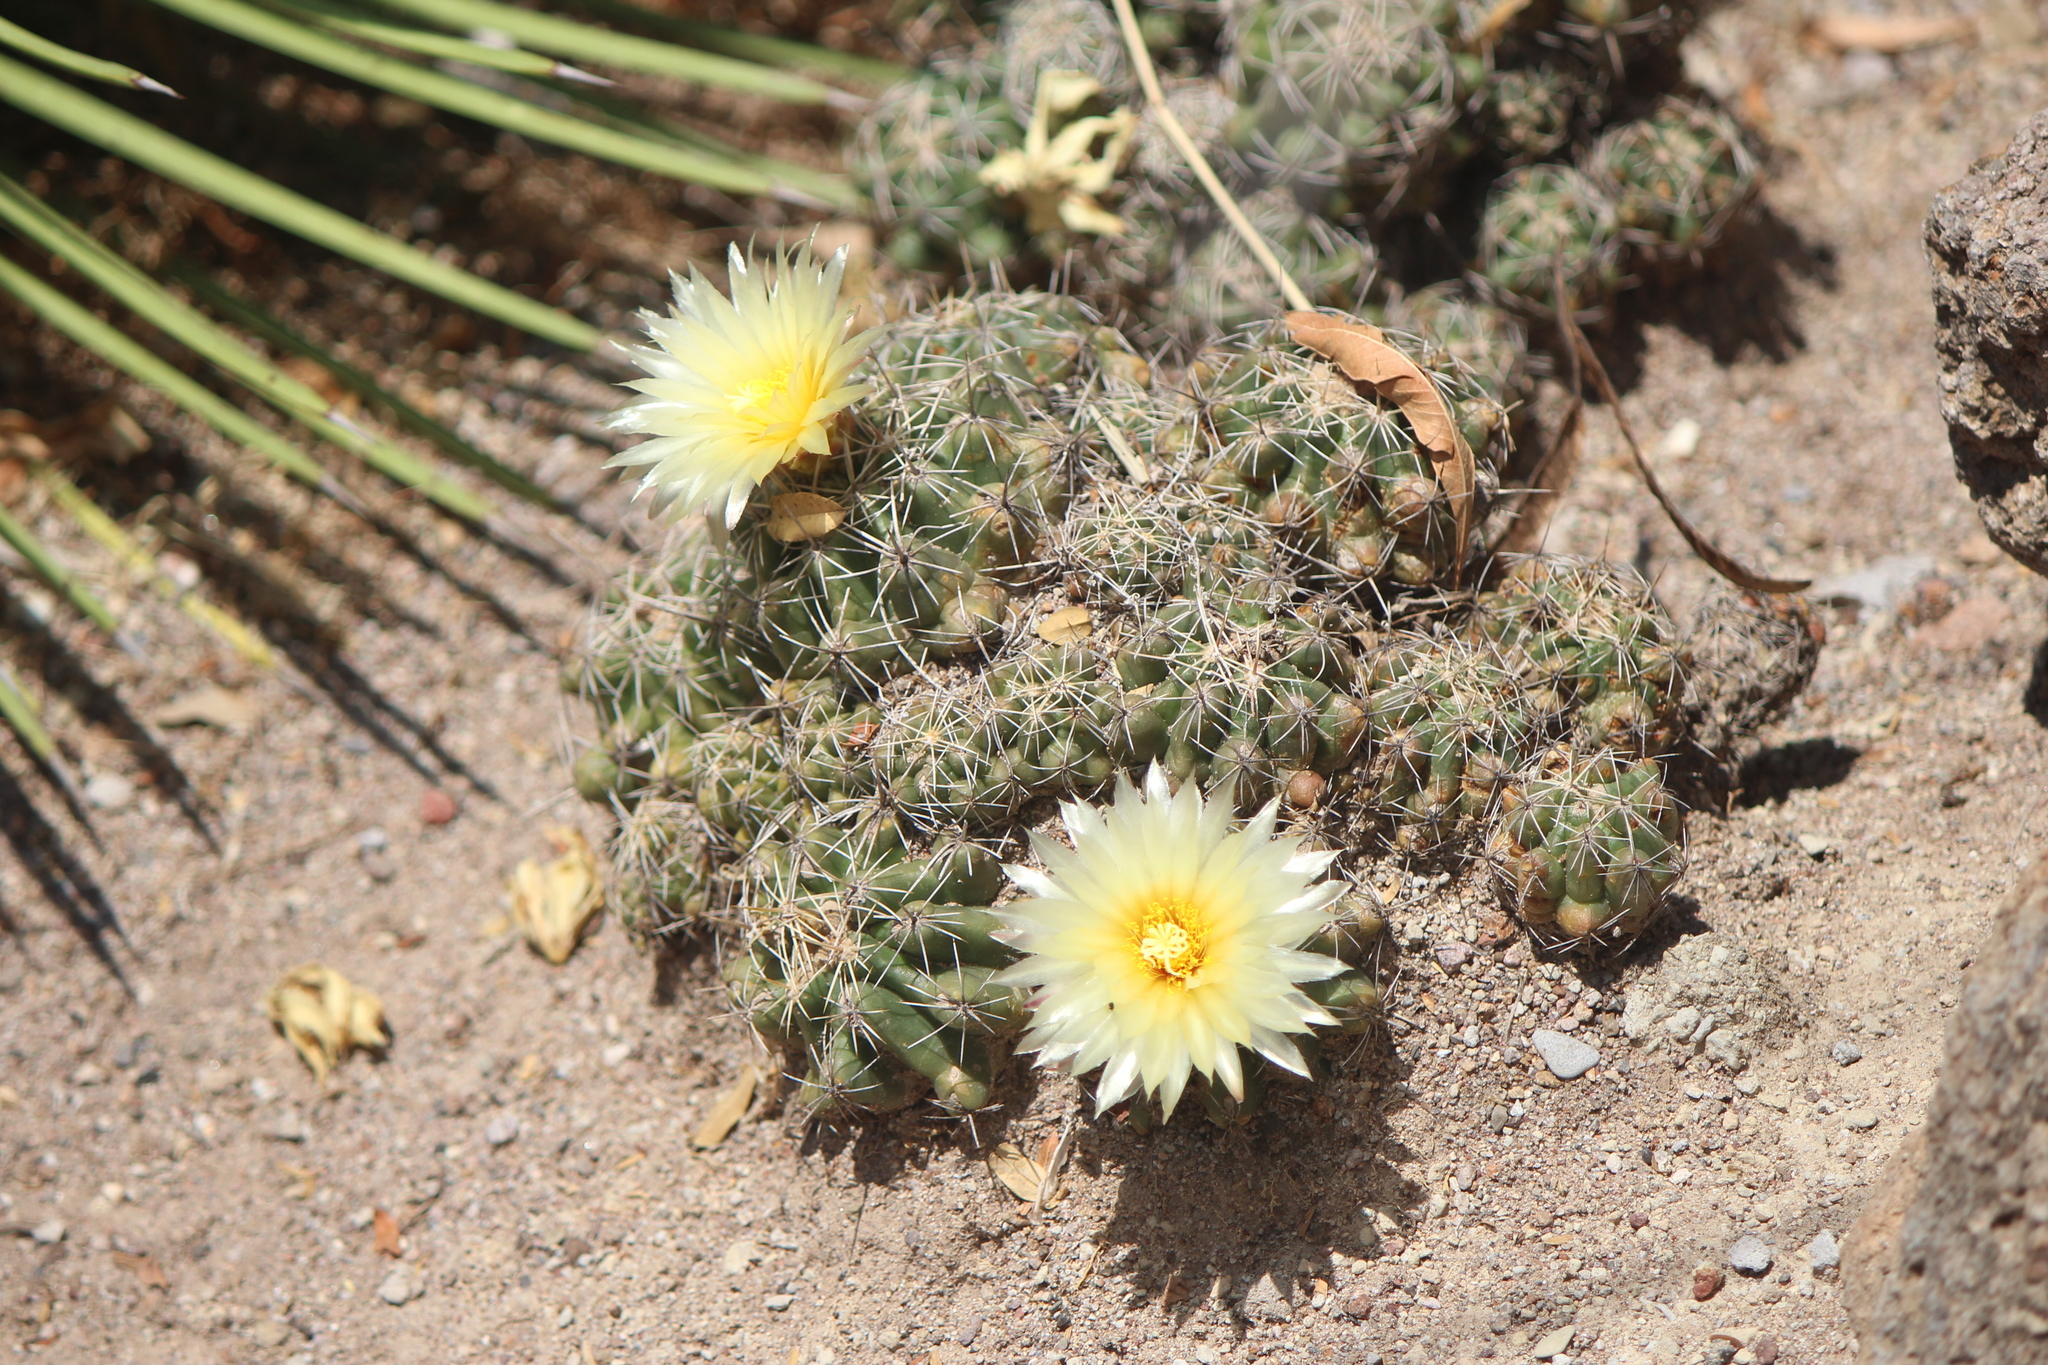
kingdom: Plantae
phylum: Tracheophyta
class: Magnoliopsida
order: Caryophyllales
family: Cactaceae
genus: Thelocactus
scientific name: Thelocactus leucacanthus
